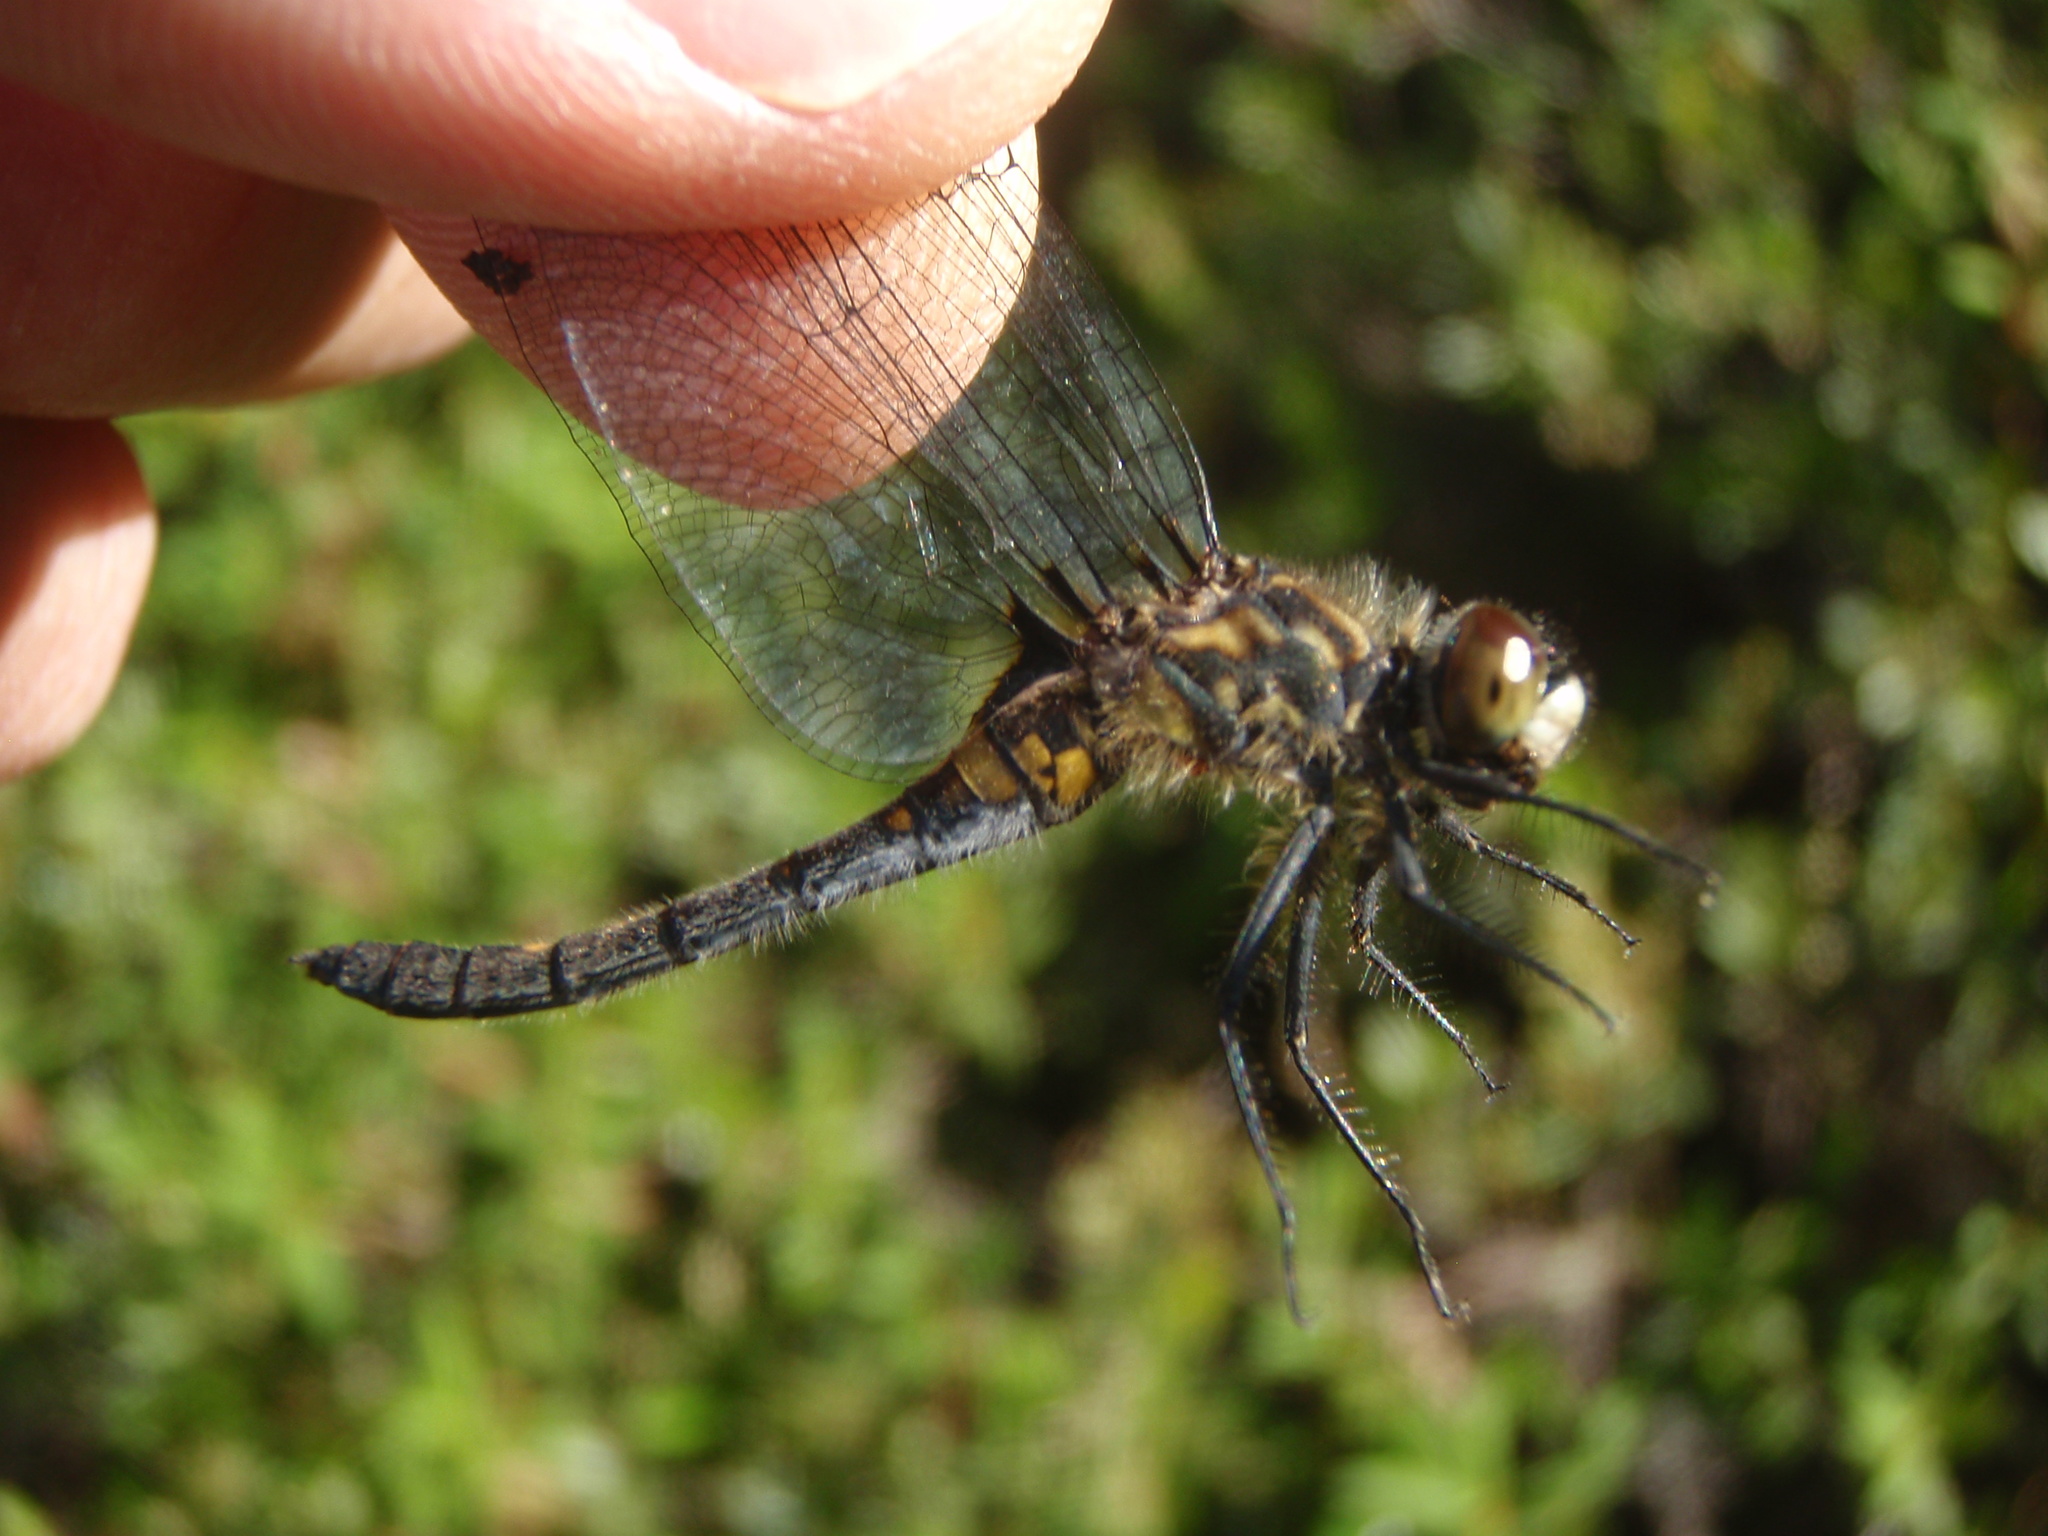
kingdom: Animalia
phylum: Arthropoda
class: Insecta
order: Odonata
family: Libellulidae
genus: Leucorrhinia
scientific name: Leucorrhinia intacta
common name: Dot-tailed whiteface
